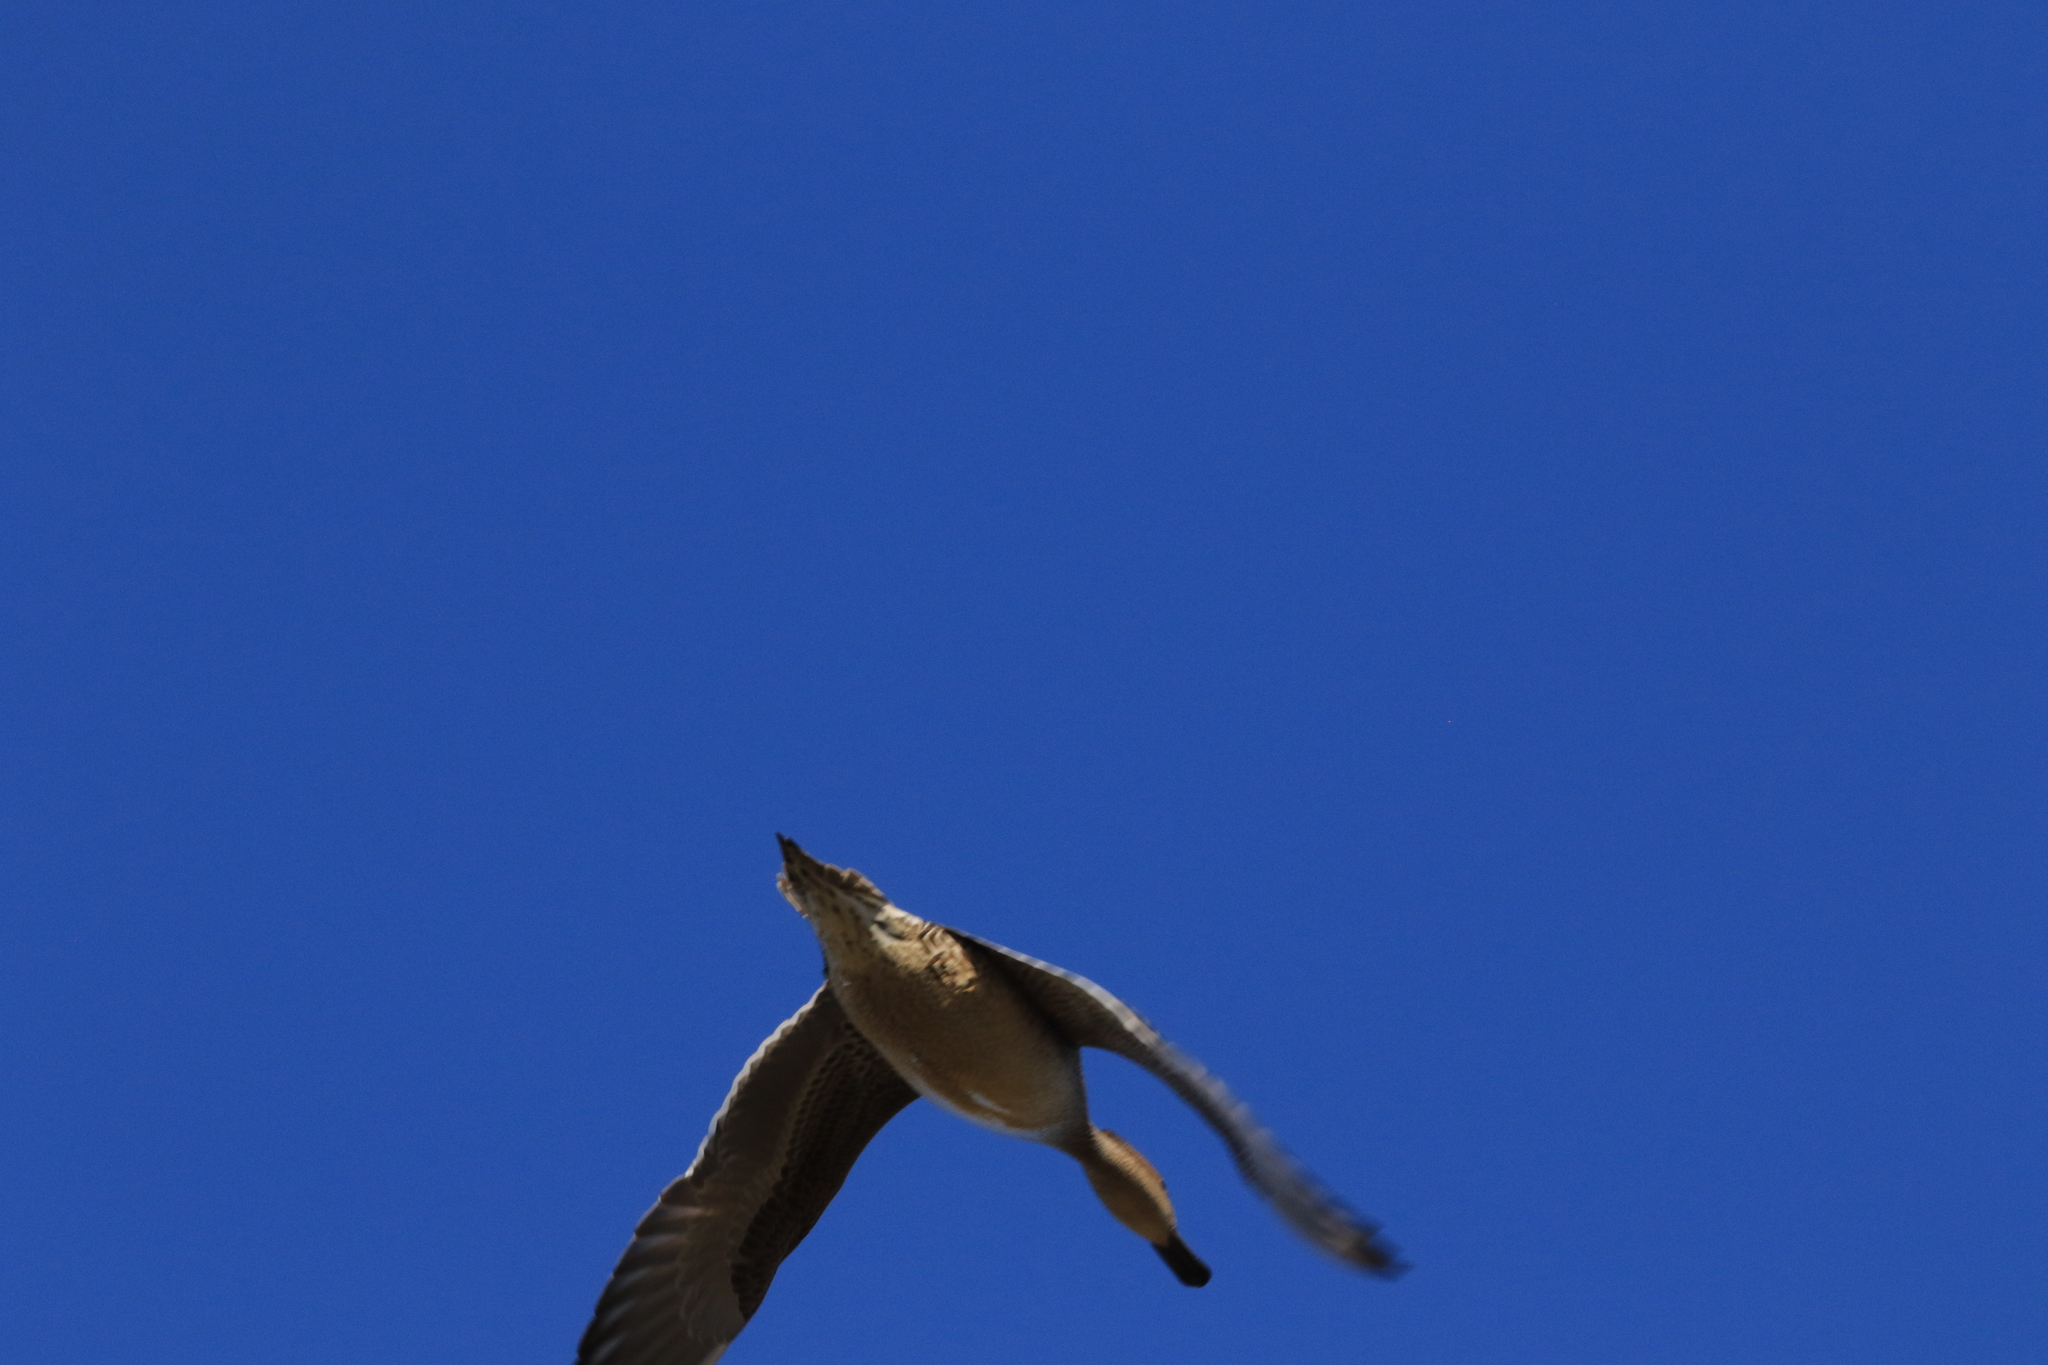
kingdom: Animalia
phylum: Chordata
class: Aves
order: Anseriformes
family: Anatidae
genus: Anas
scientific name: Anas acuta
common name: Northern pintail
